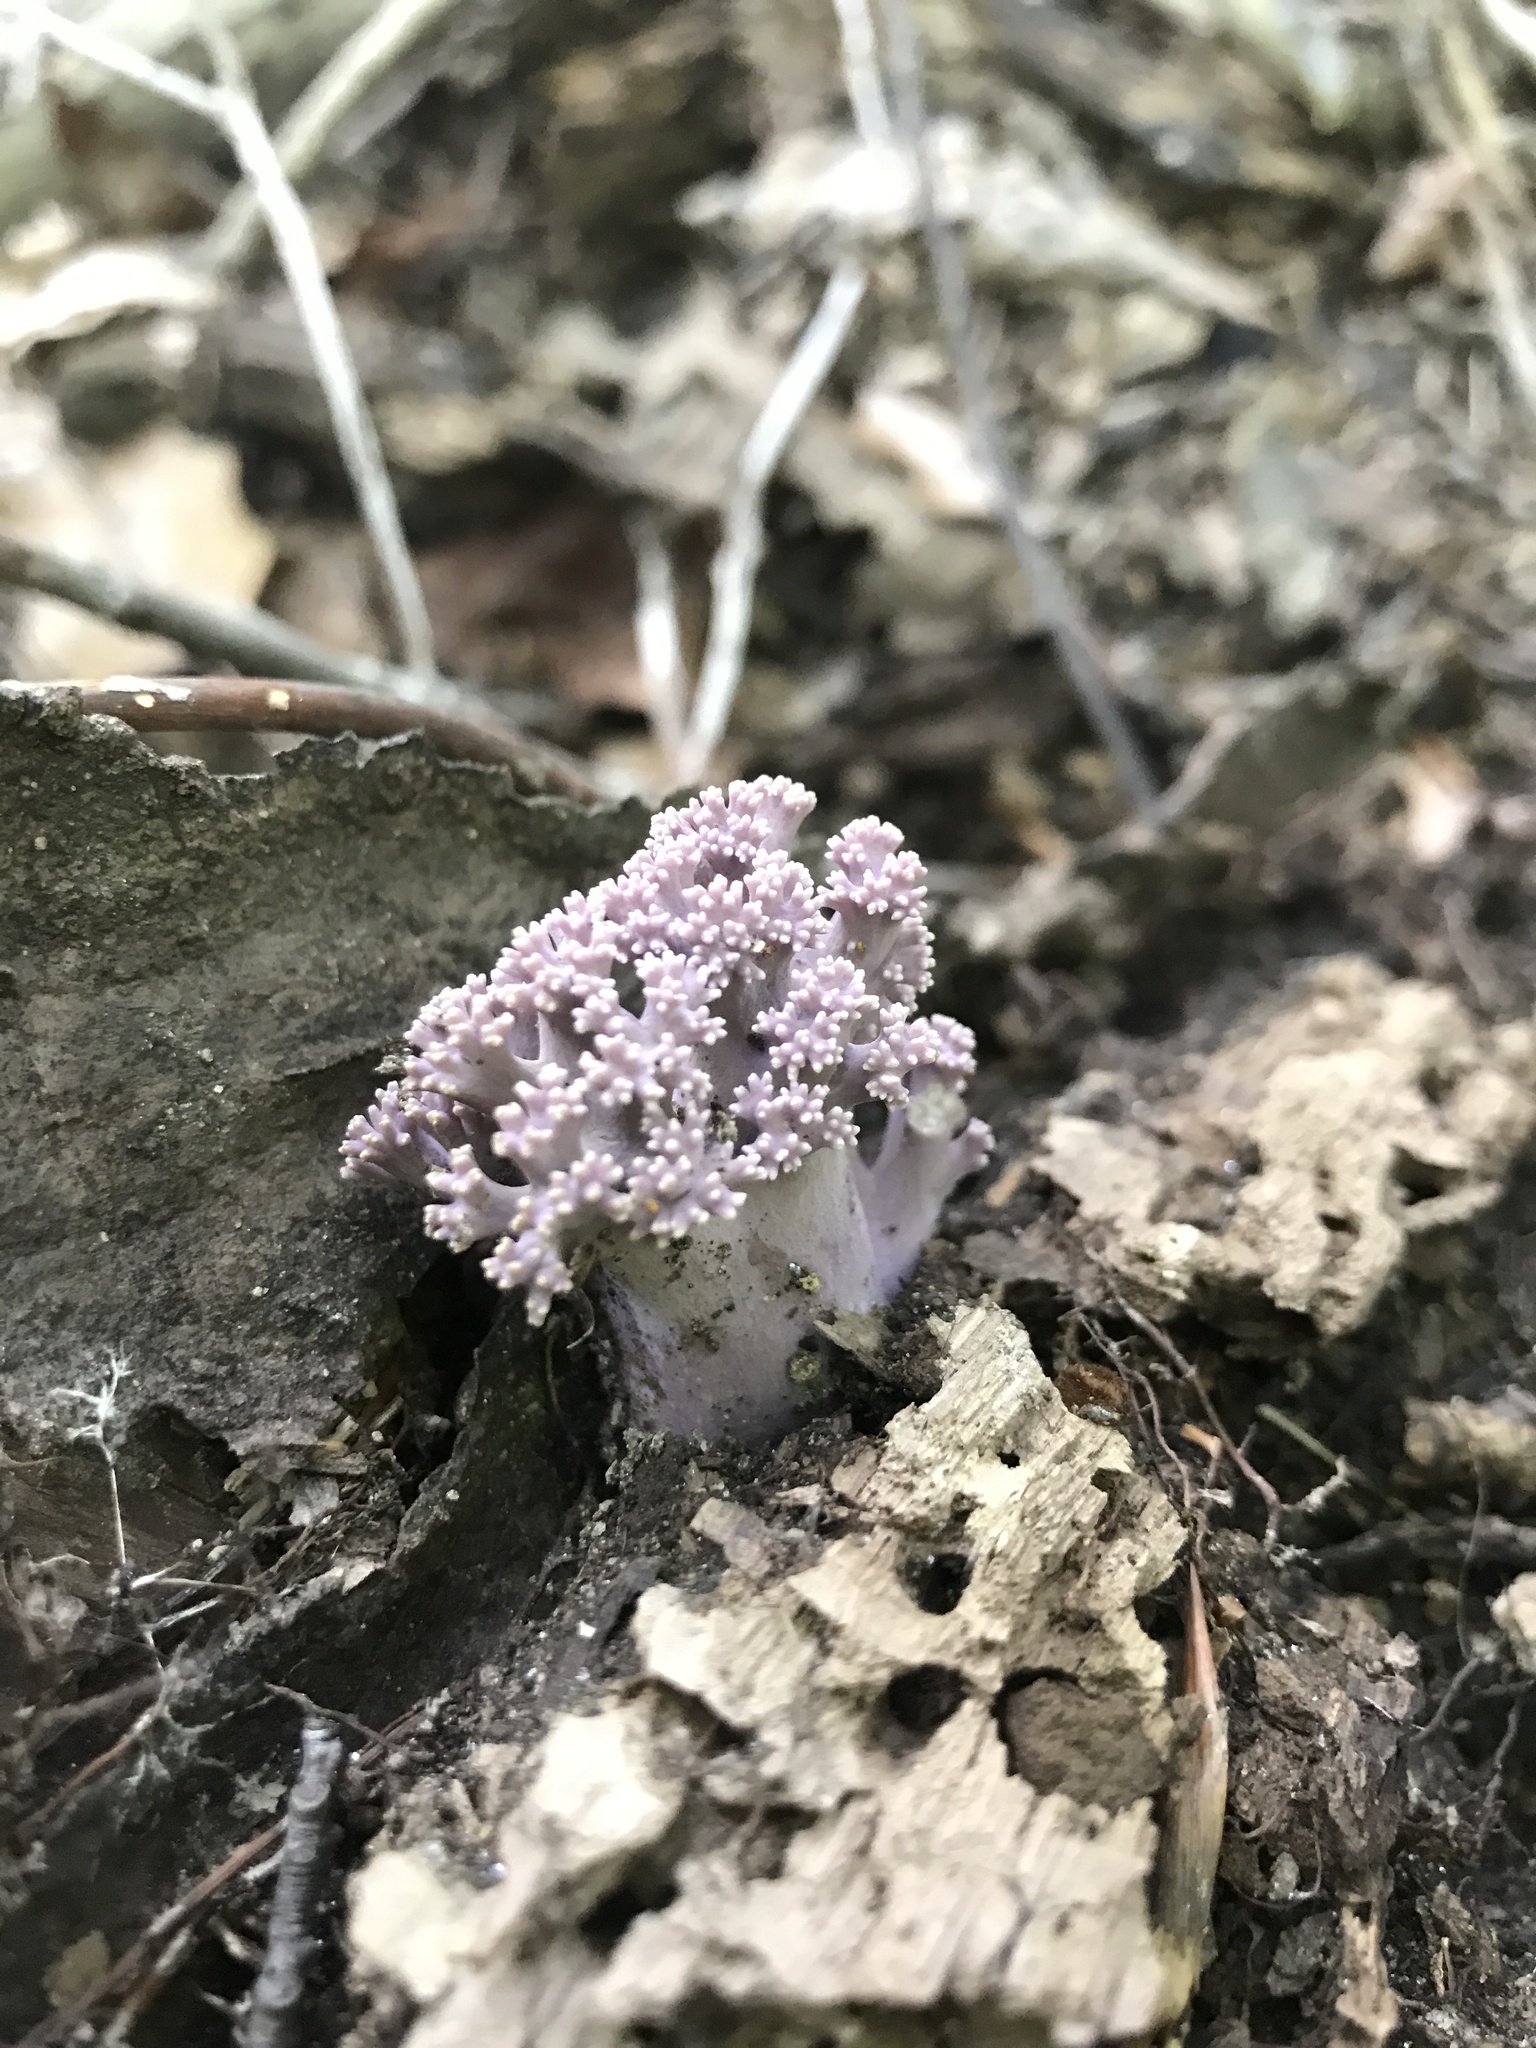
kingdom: Fungi
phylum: Basidiomycota
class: Agaricomycetes
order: Gomphales
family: Gomphaceae
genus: Ramaria
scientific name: Ramaria fumigata
